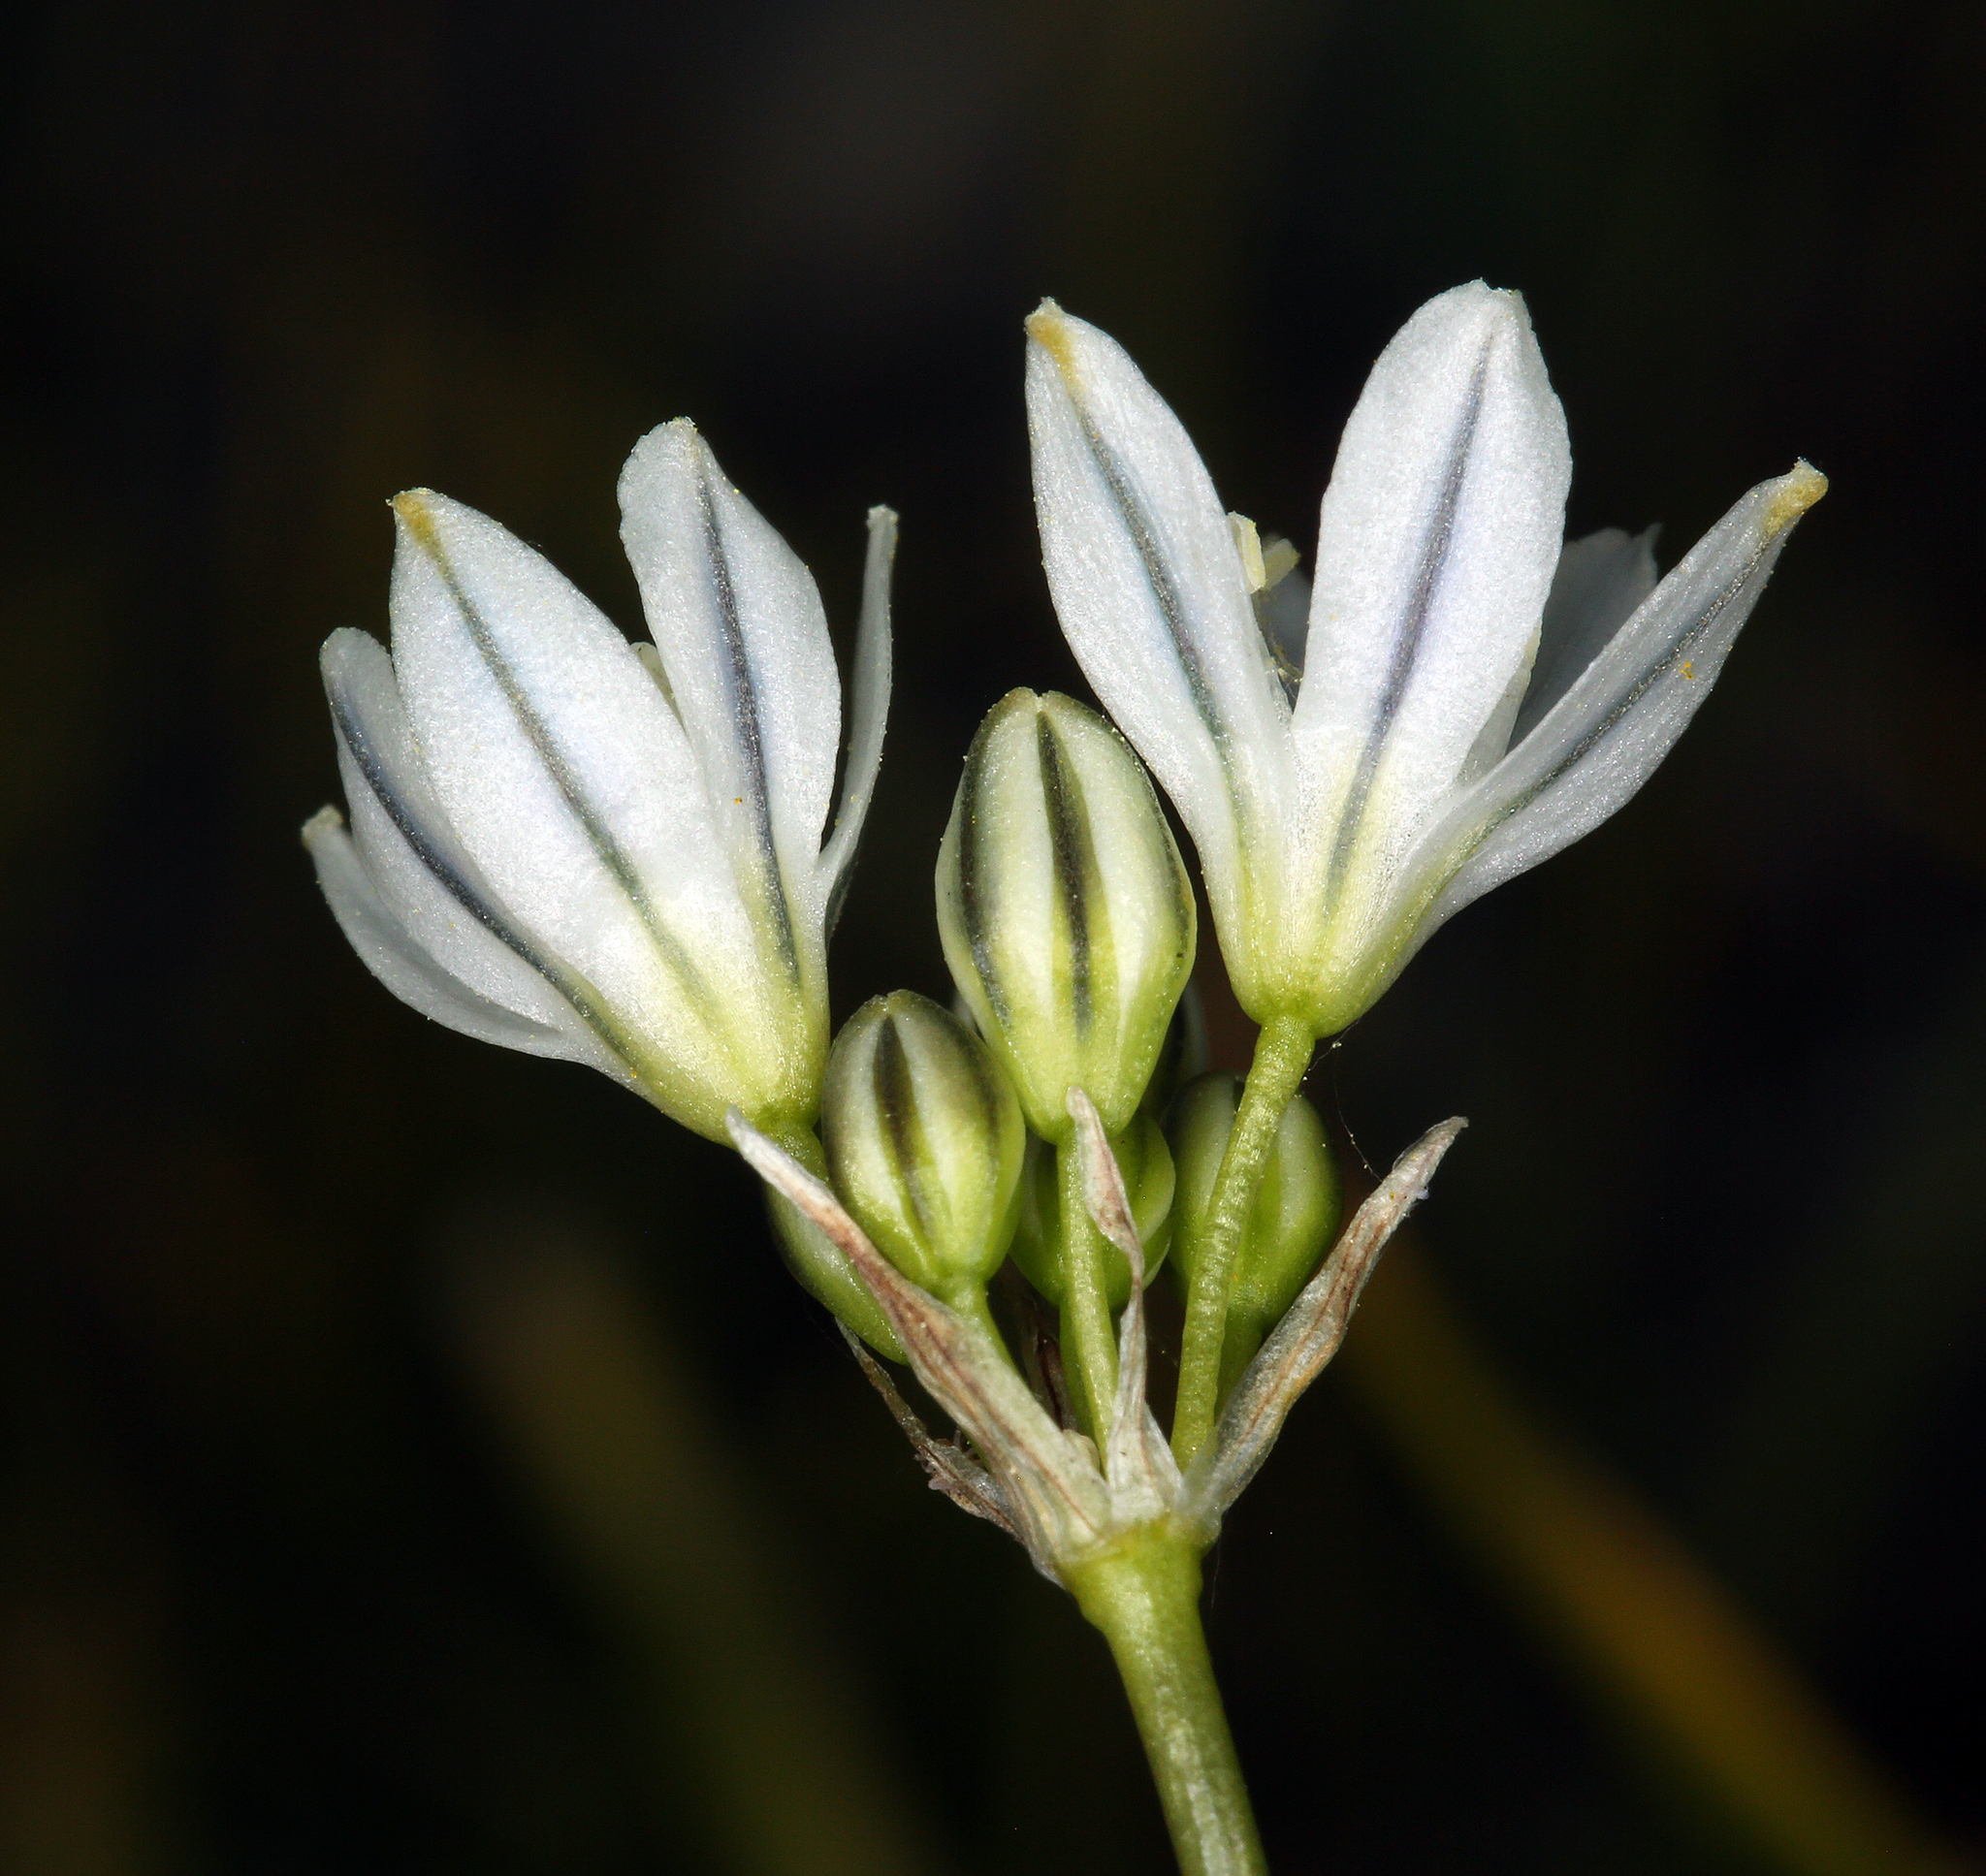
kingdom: Plantae
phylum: Tracheophyta
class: Liliopsida
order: Asparagales
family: Asparagaceae
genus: Triteleia
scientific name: Triteleia hyacinthina
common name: White brodiaea
